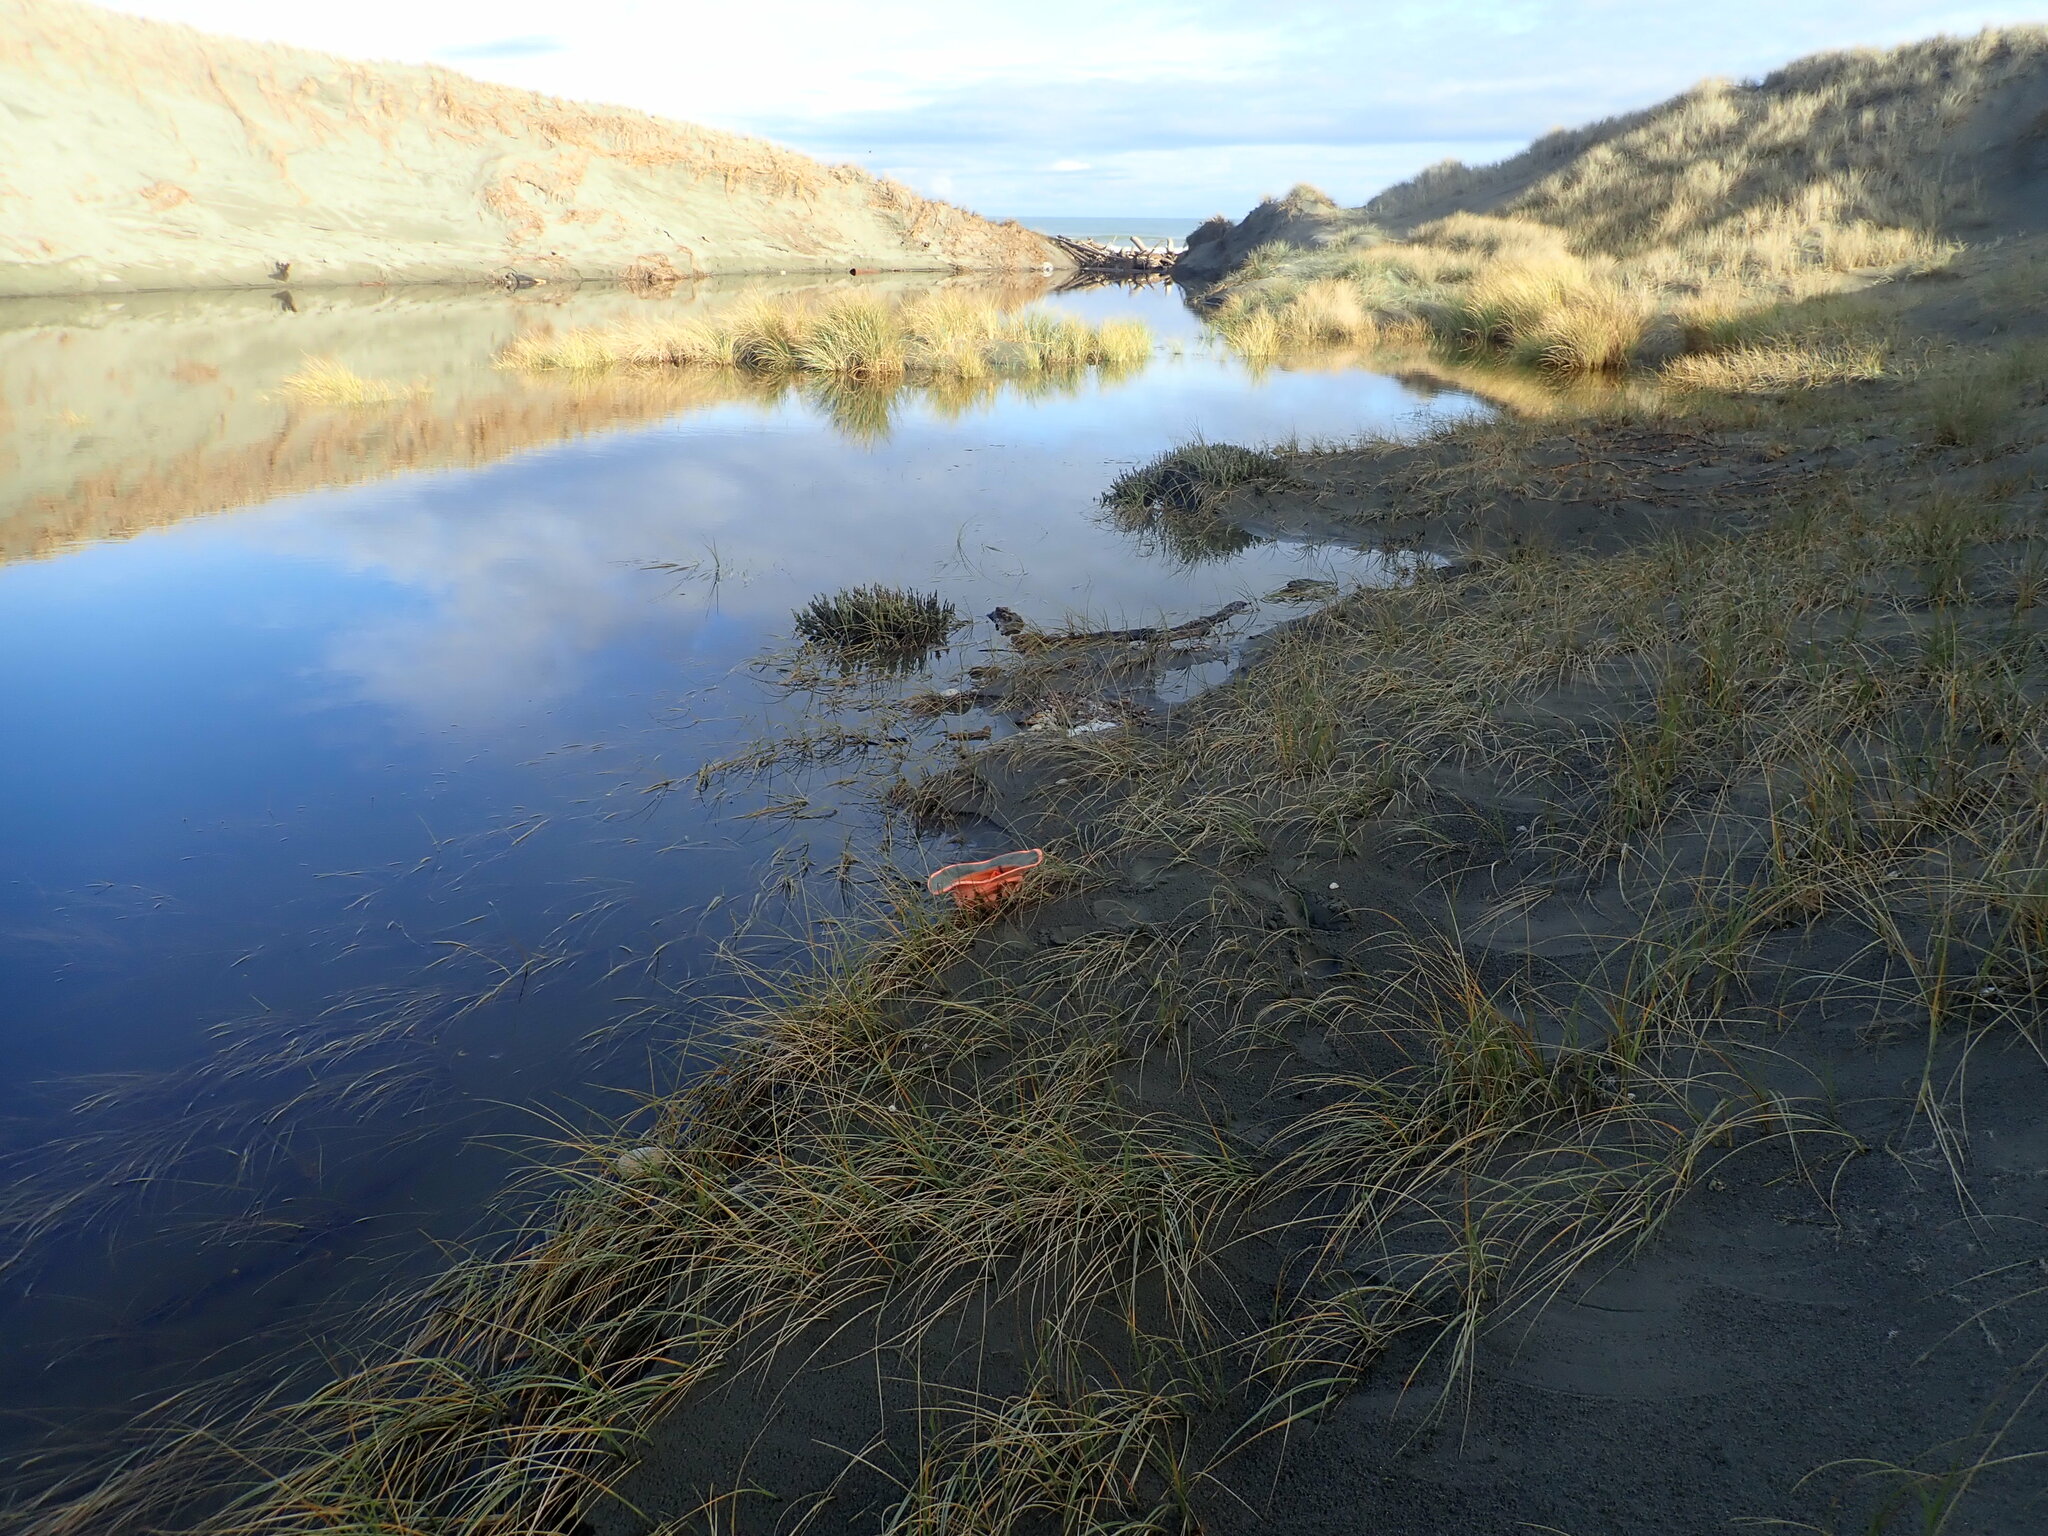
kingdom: Animalia
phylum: Cnidaria
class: Hydrozoa
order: Siphonophorae
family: Physaliidae
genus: Physalia
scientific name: Physalia physalis
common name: Portuguese man-of-war
